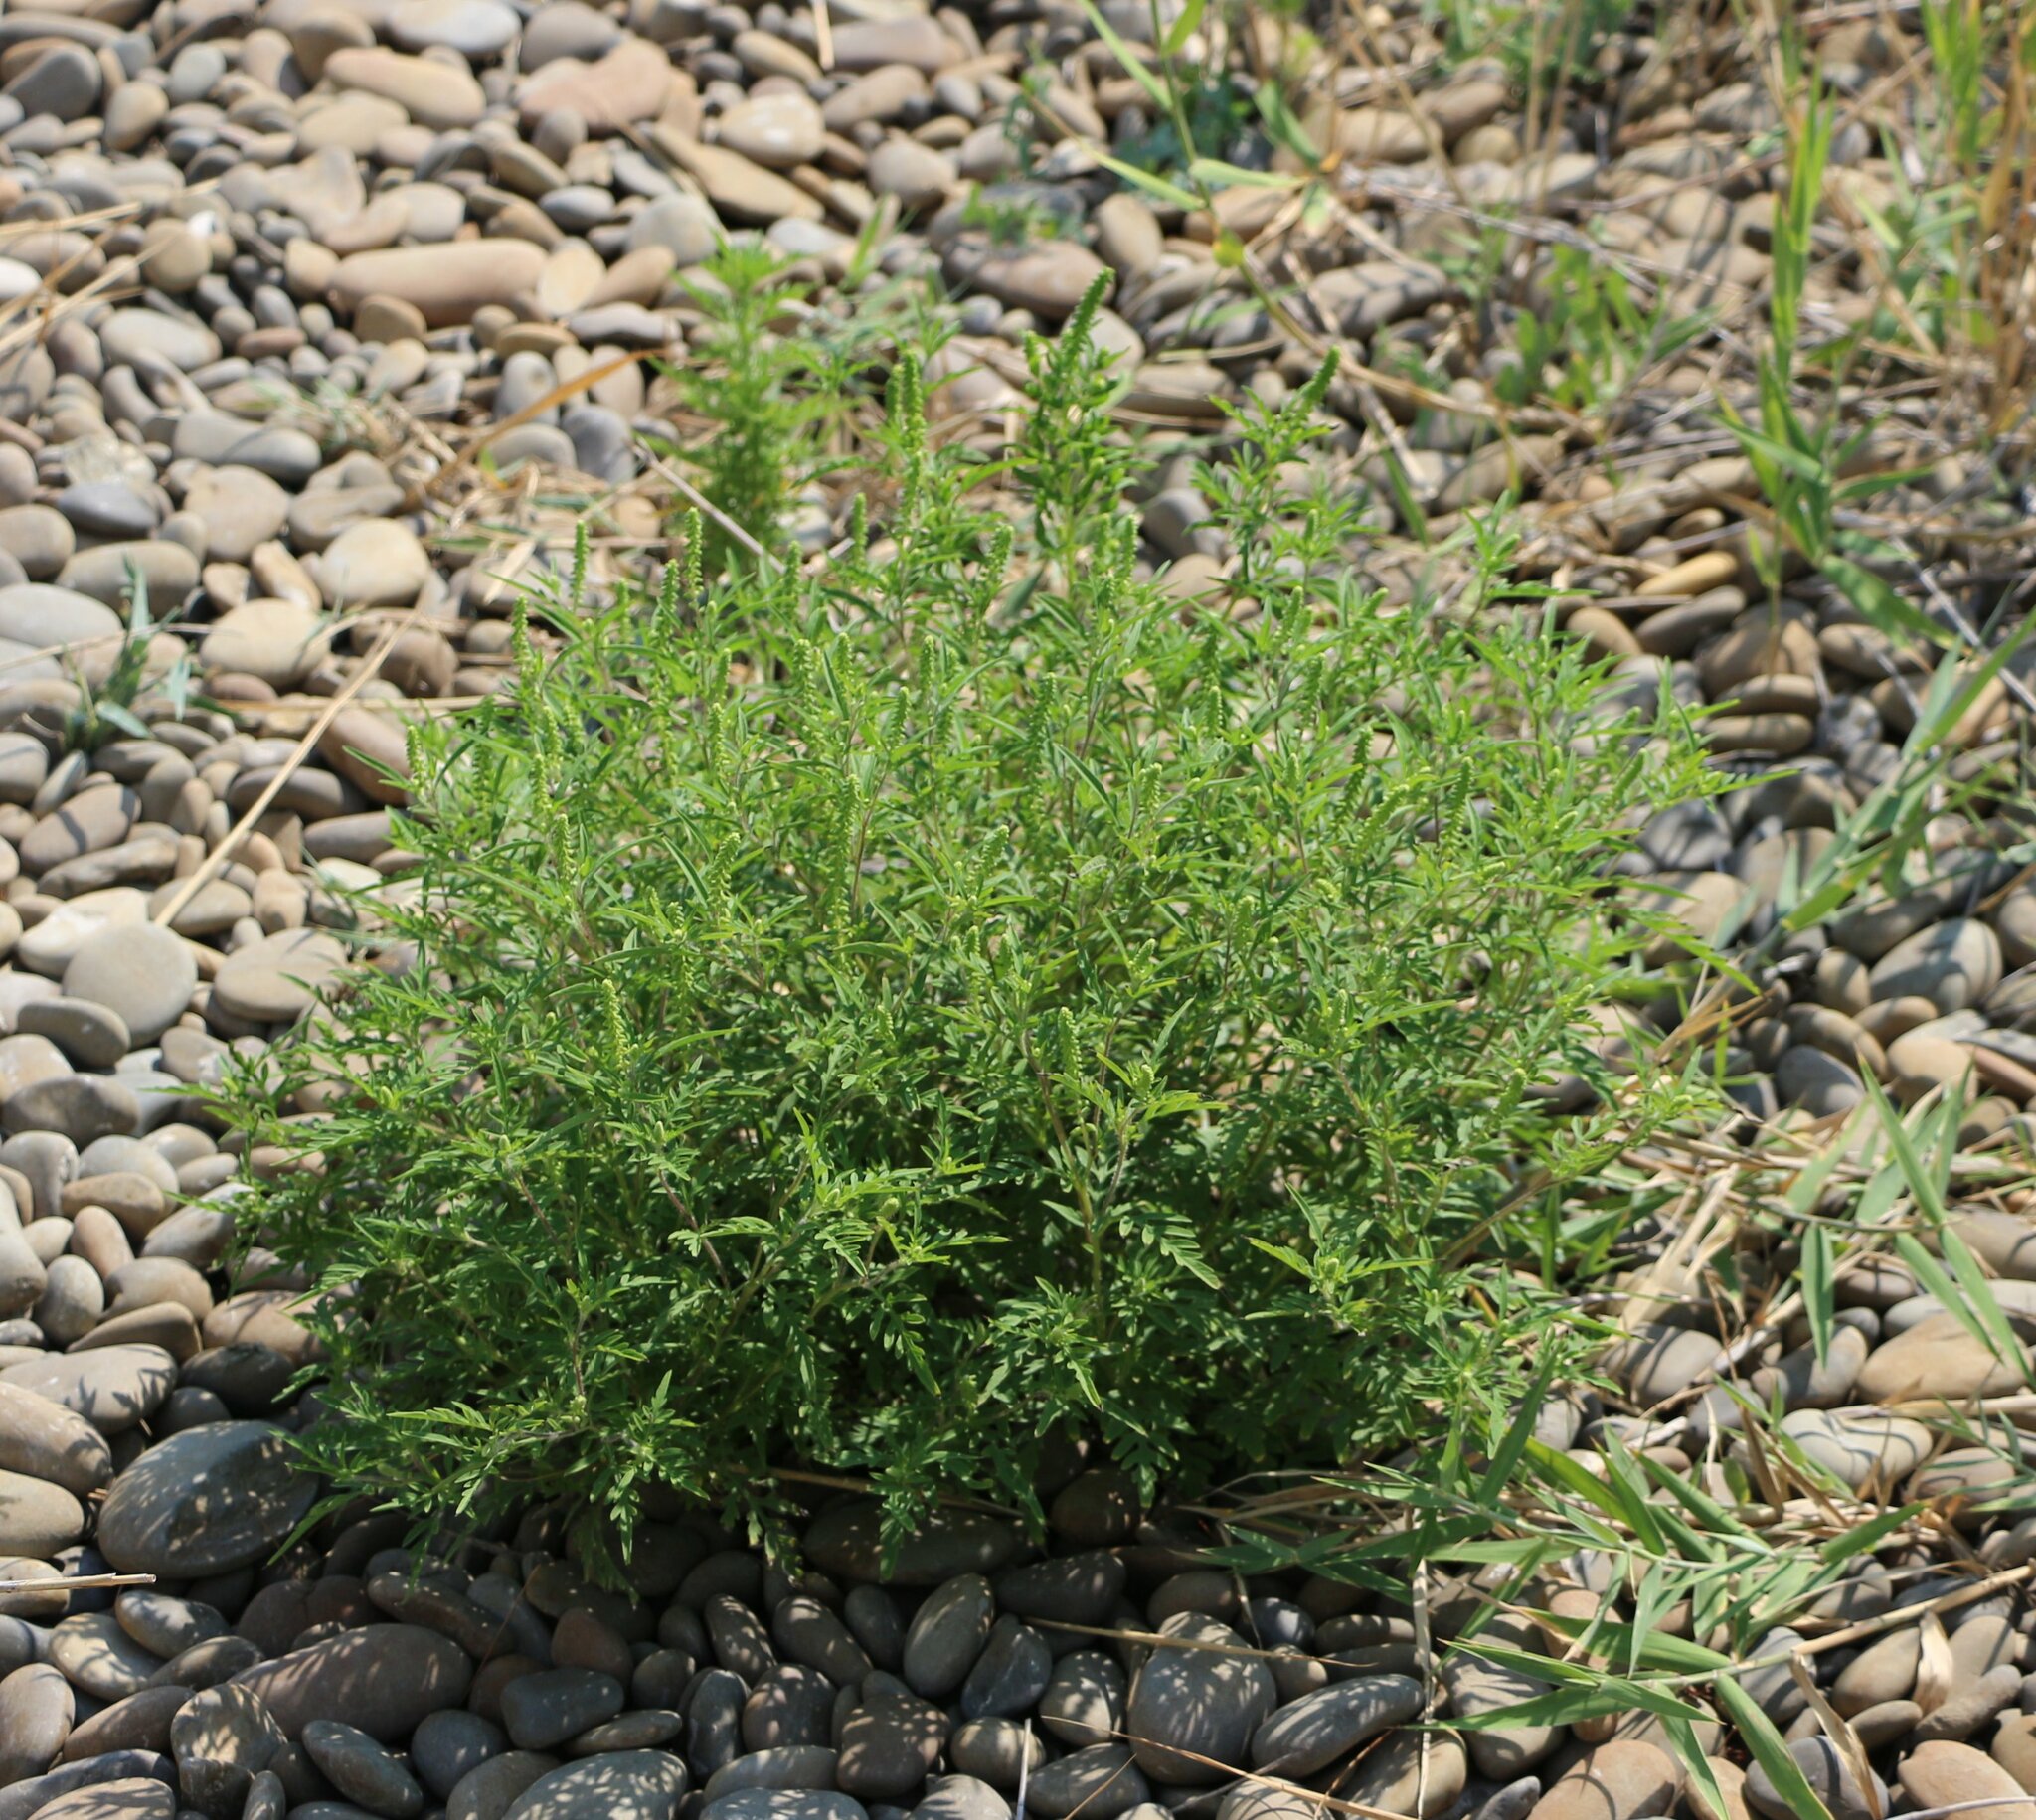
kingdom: Plantae
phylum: Tracheophyta
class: Magnoliopsida
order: Asterales
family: Asteraceae
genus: Ambrosia
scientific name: Ambrosia artemisiifolia
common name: Annual ragweed
